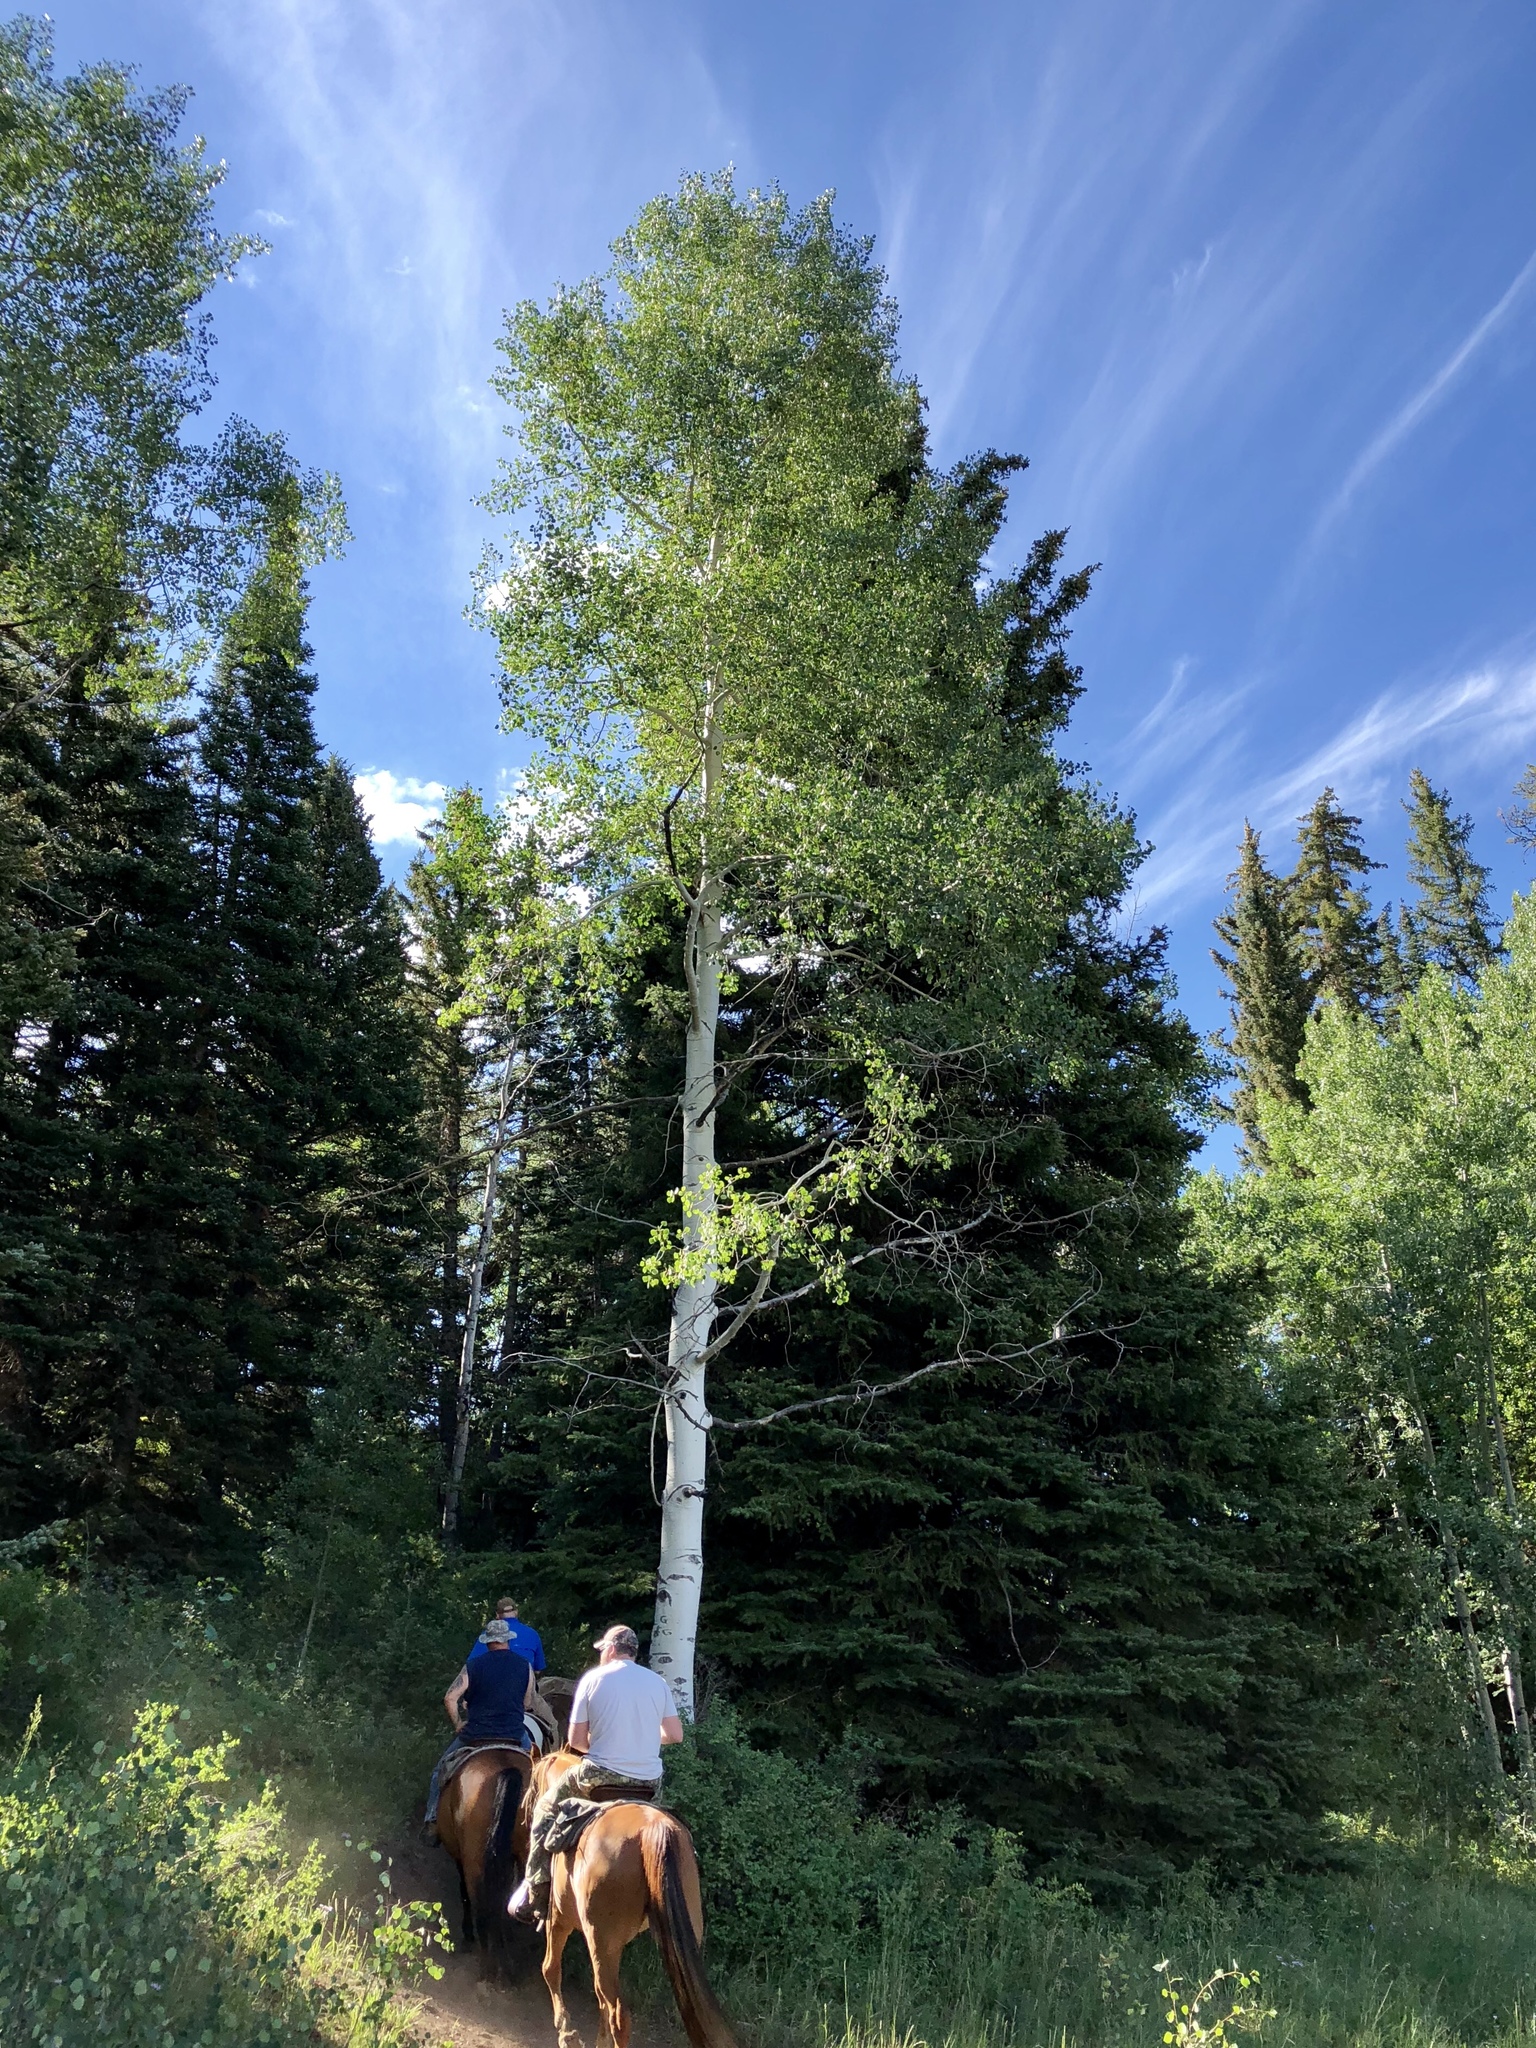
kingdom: Plantae
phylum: Tracheophyta
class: Magnoliopsida
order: Malpighiales
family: Salicaceae
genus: Populus
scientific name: Populus tremuloides
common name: Quaking aspen
